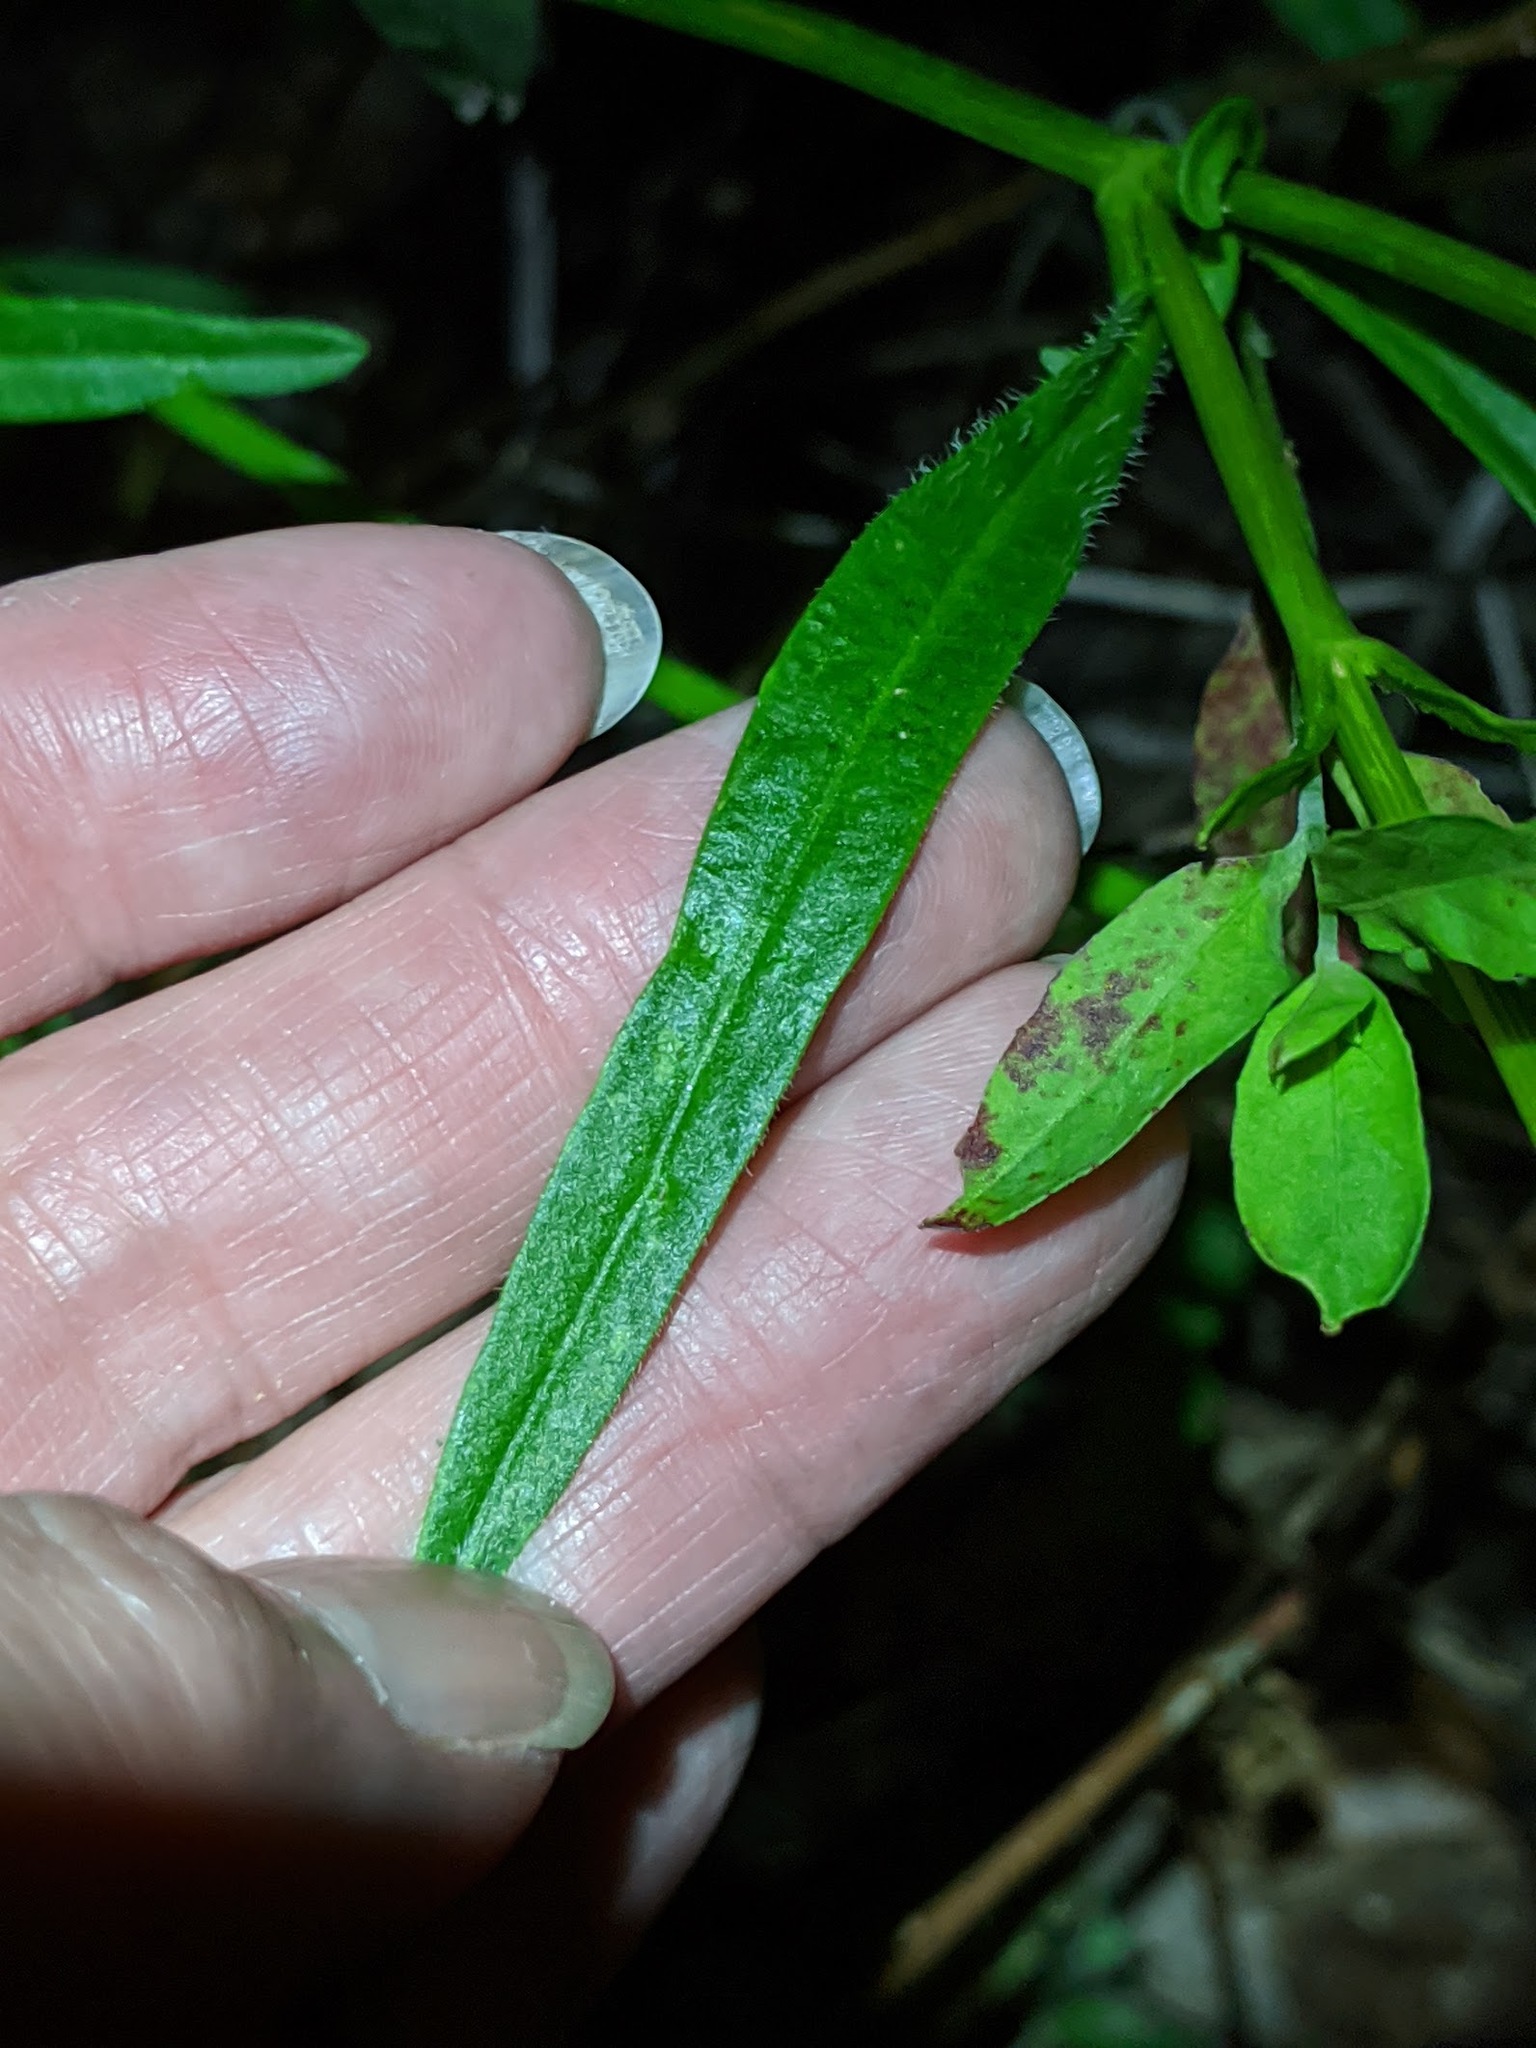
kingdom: Plantae
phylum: Tracheophyta
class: Magnoliopsida
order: Asterales
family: Asteraceae
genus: Coreopsis
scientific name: Coreopsis lanceolata
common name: Garden coreopsis
